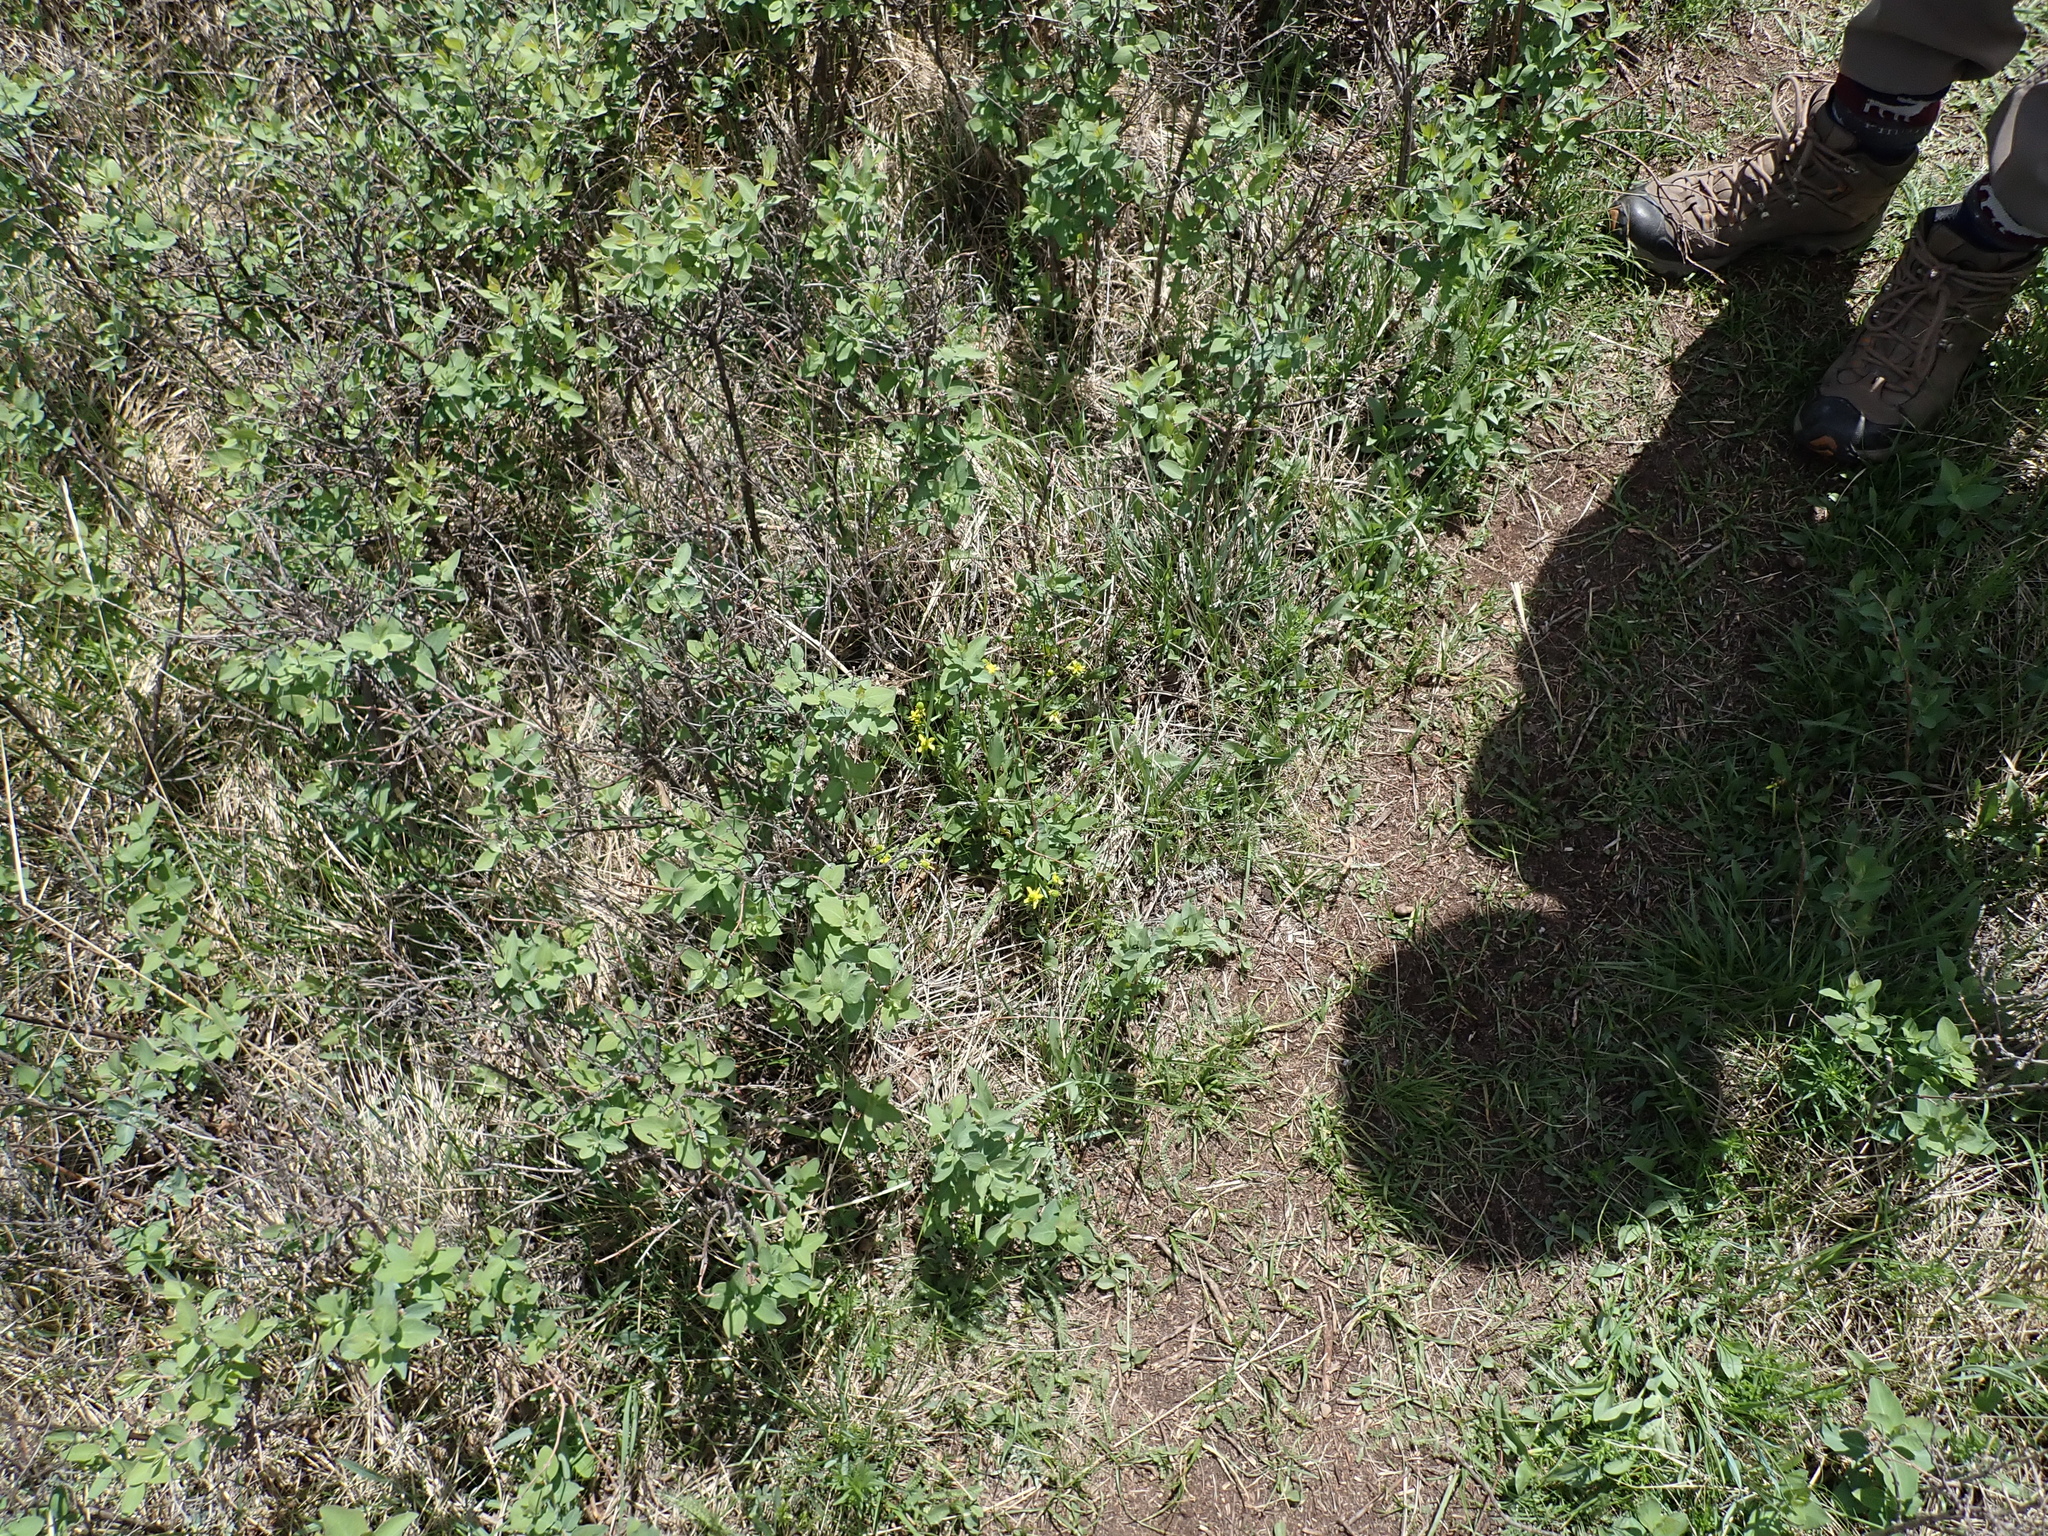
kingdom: Plantae
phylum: Tracheophyta
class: Magnoliopsida
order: Ranunculales
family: Ranunculaceae
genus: Ranunculus
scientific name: Ranunculus rhomboideus
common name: Prairie buttercup
